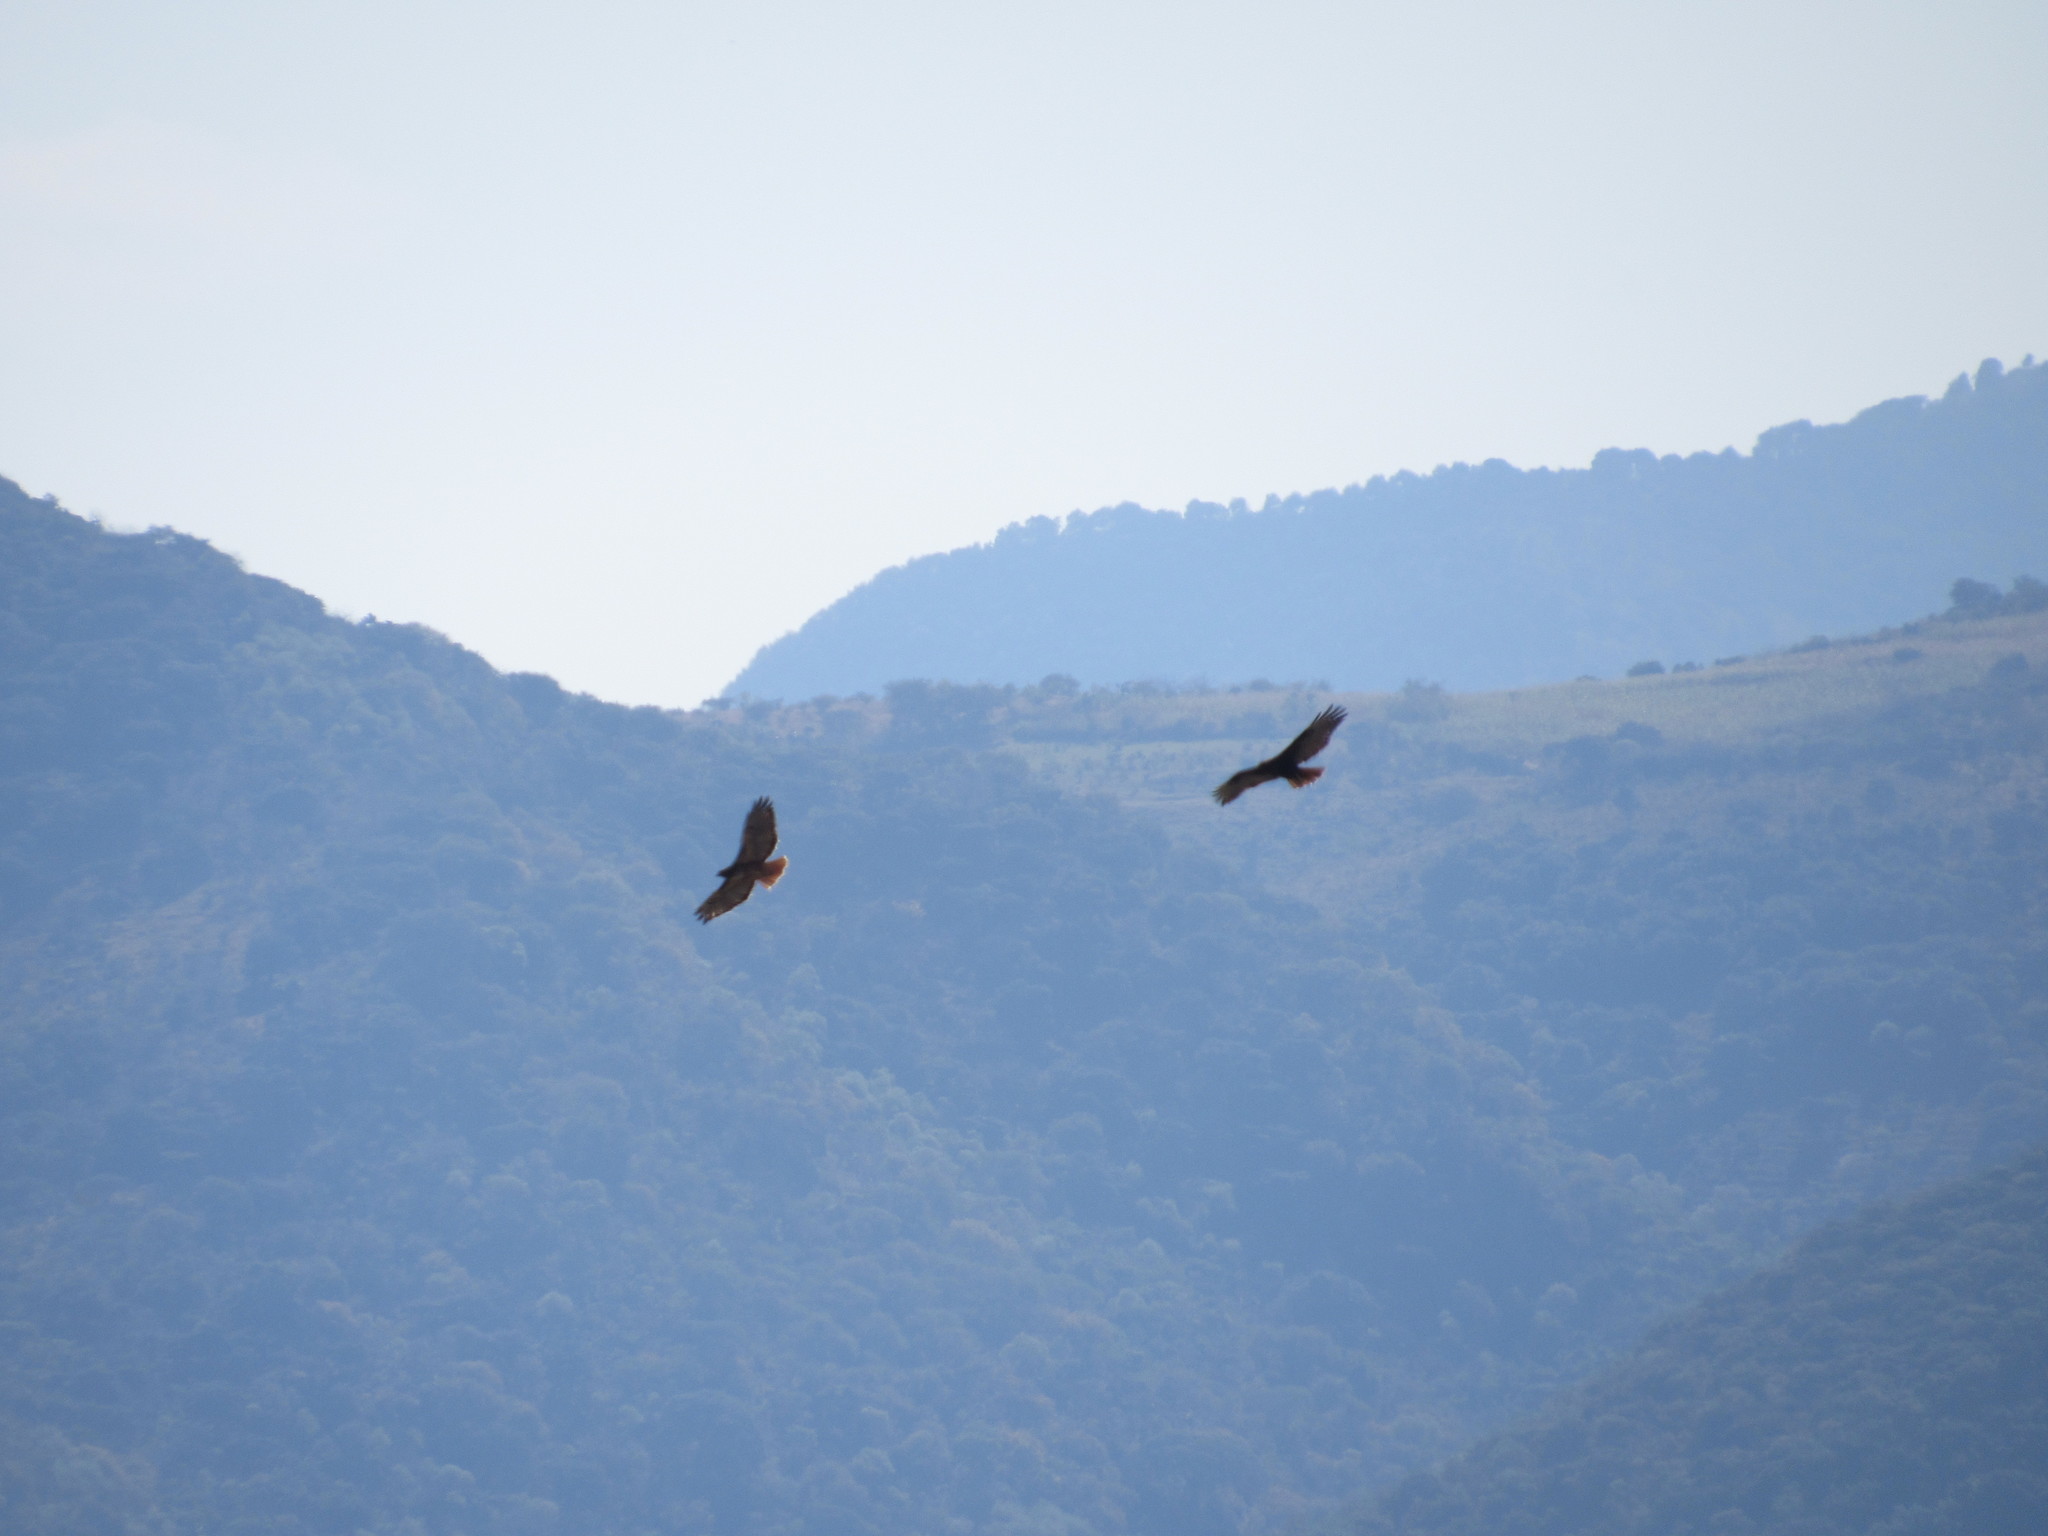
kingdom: Animalia
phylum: Chordata
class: Aves
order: Accipitriformes
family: Accipitridae
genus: Buteo
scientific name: Buteo jamaicensis
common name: Red-tailed hawk
